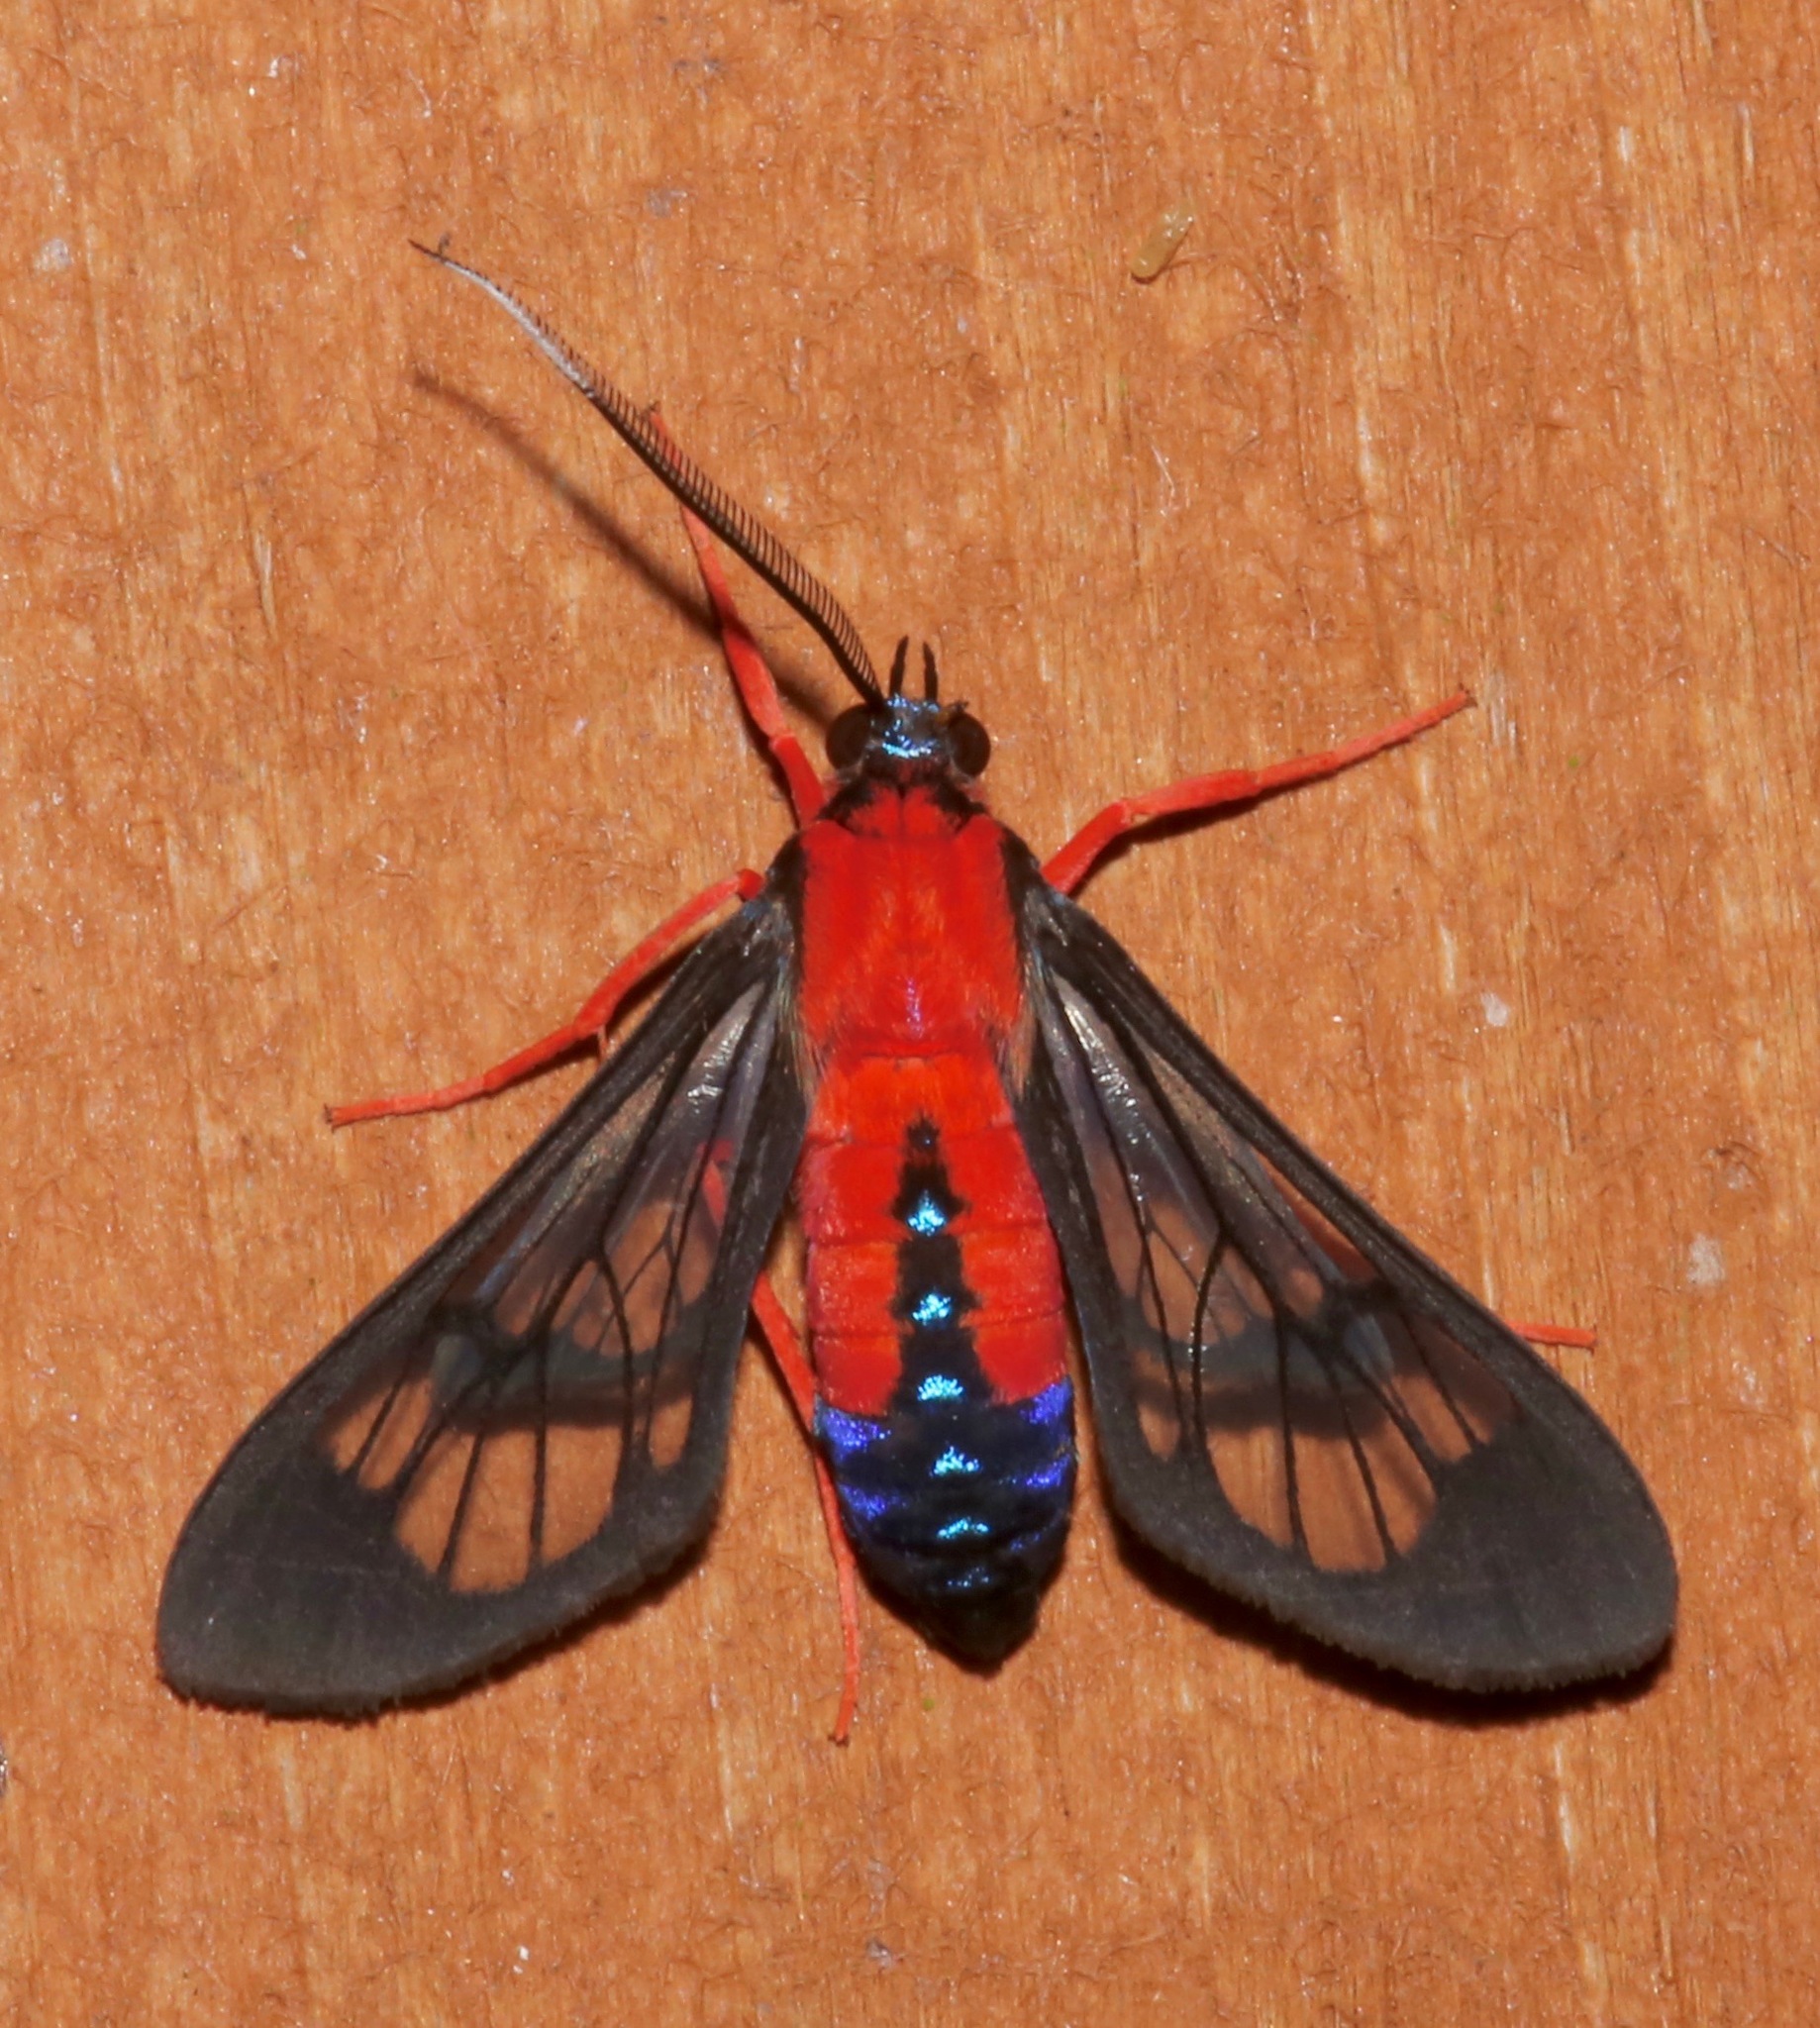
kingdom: Animalia
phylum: Arthropoda
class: Insecta
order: Lepidoptera
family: Erebidae
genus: Cosmosoma
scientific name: Cosmosoma myrodora
